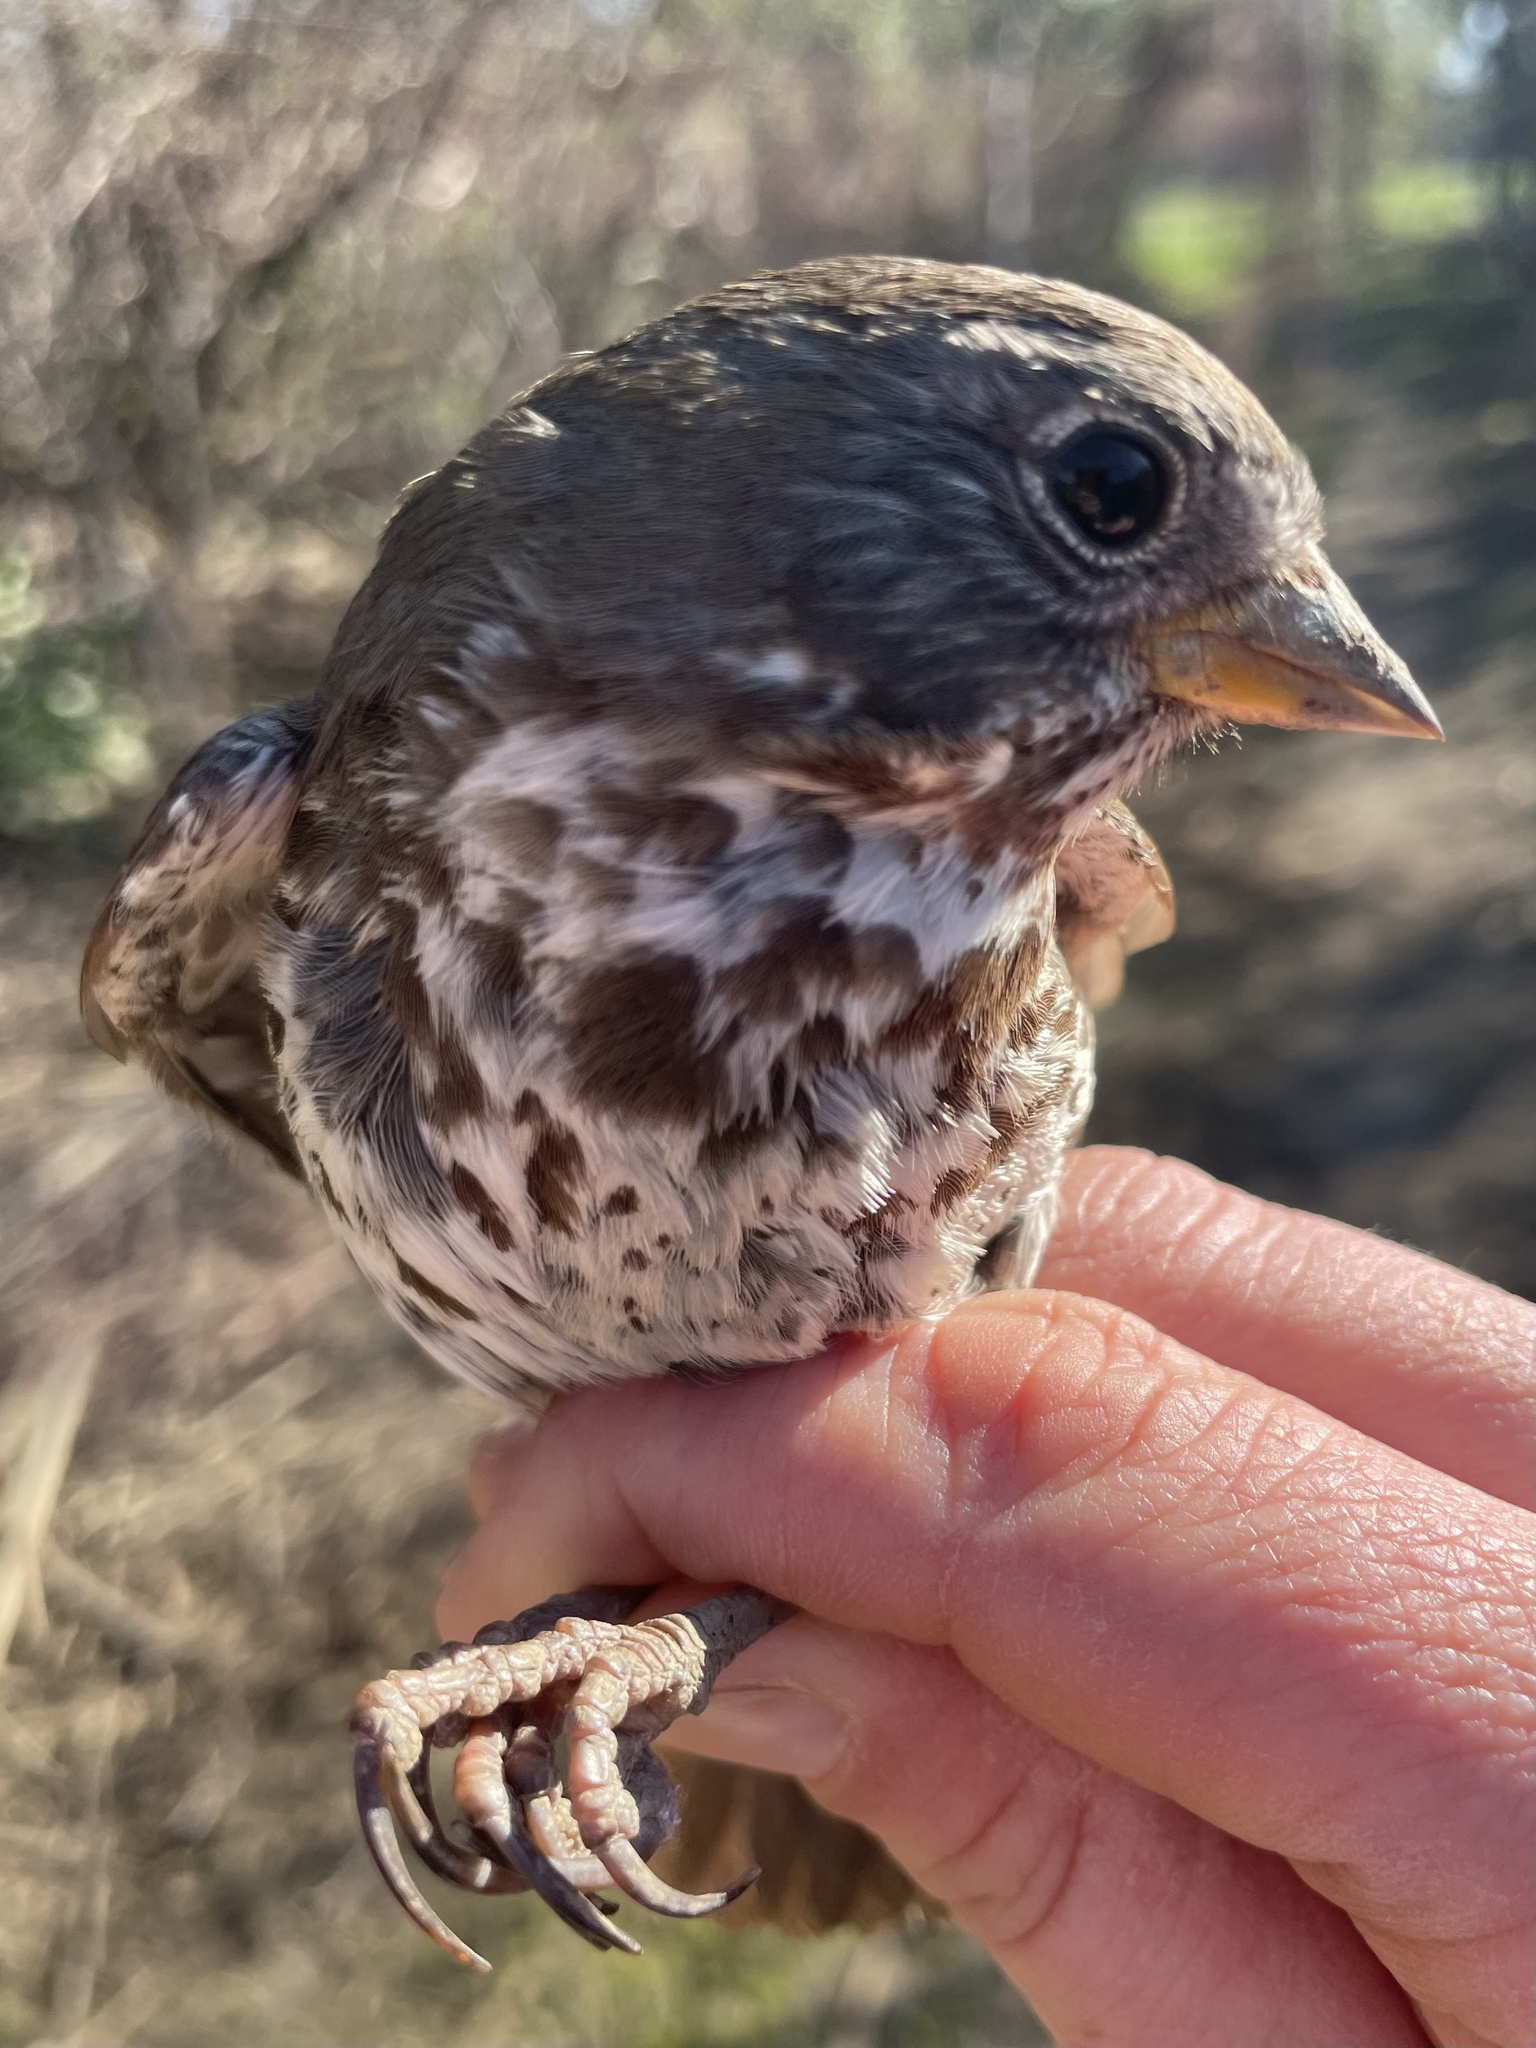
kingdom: Animalia
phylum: Chordata
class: Aves
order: Passeriformes
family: Passerellidae
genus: Passerella
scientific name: Passerella iliaca
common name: Fox sparrow
